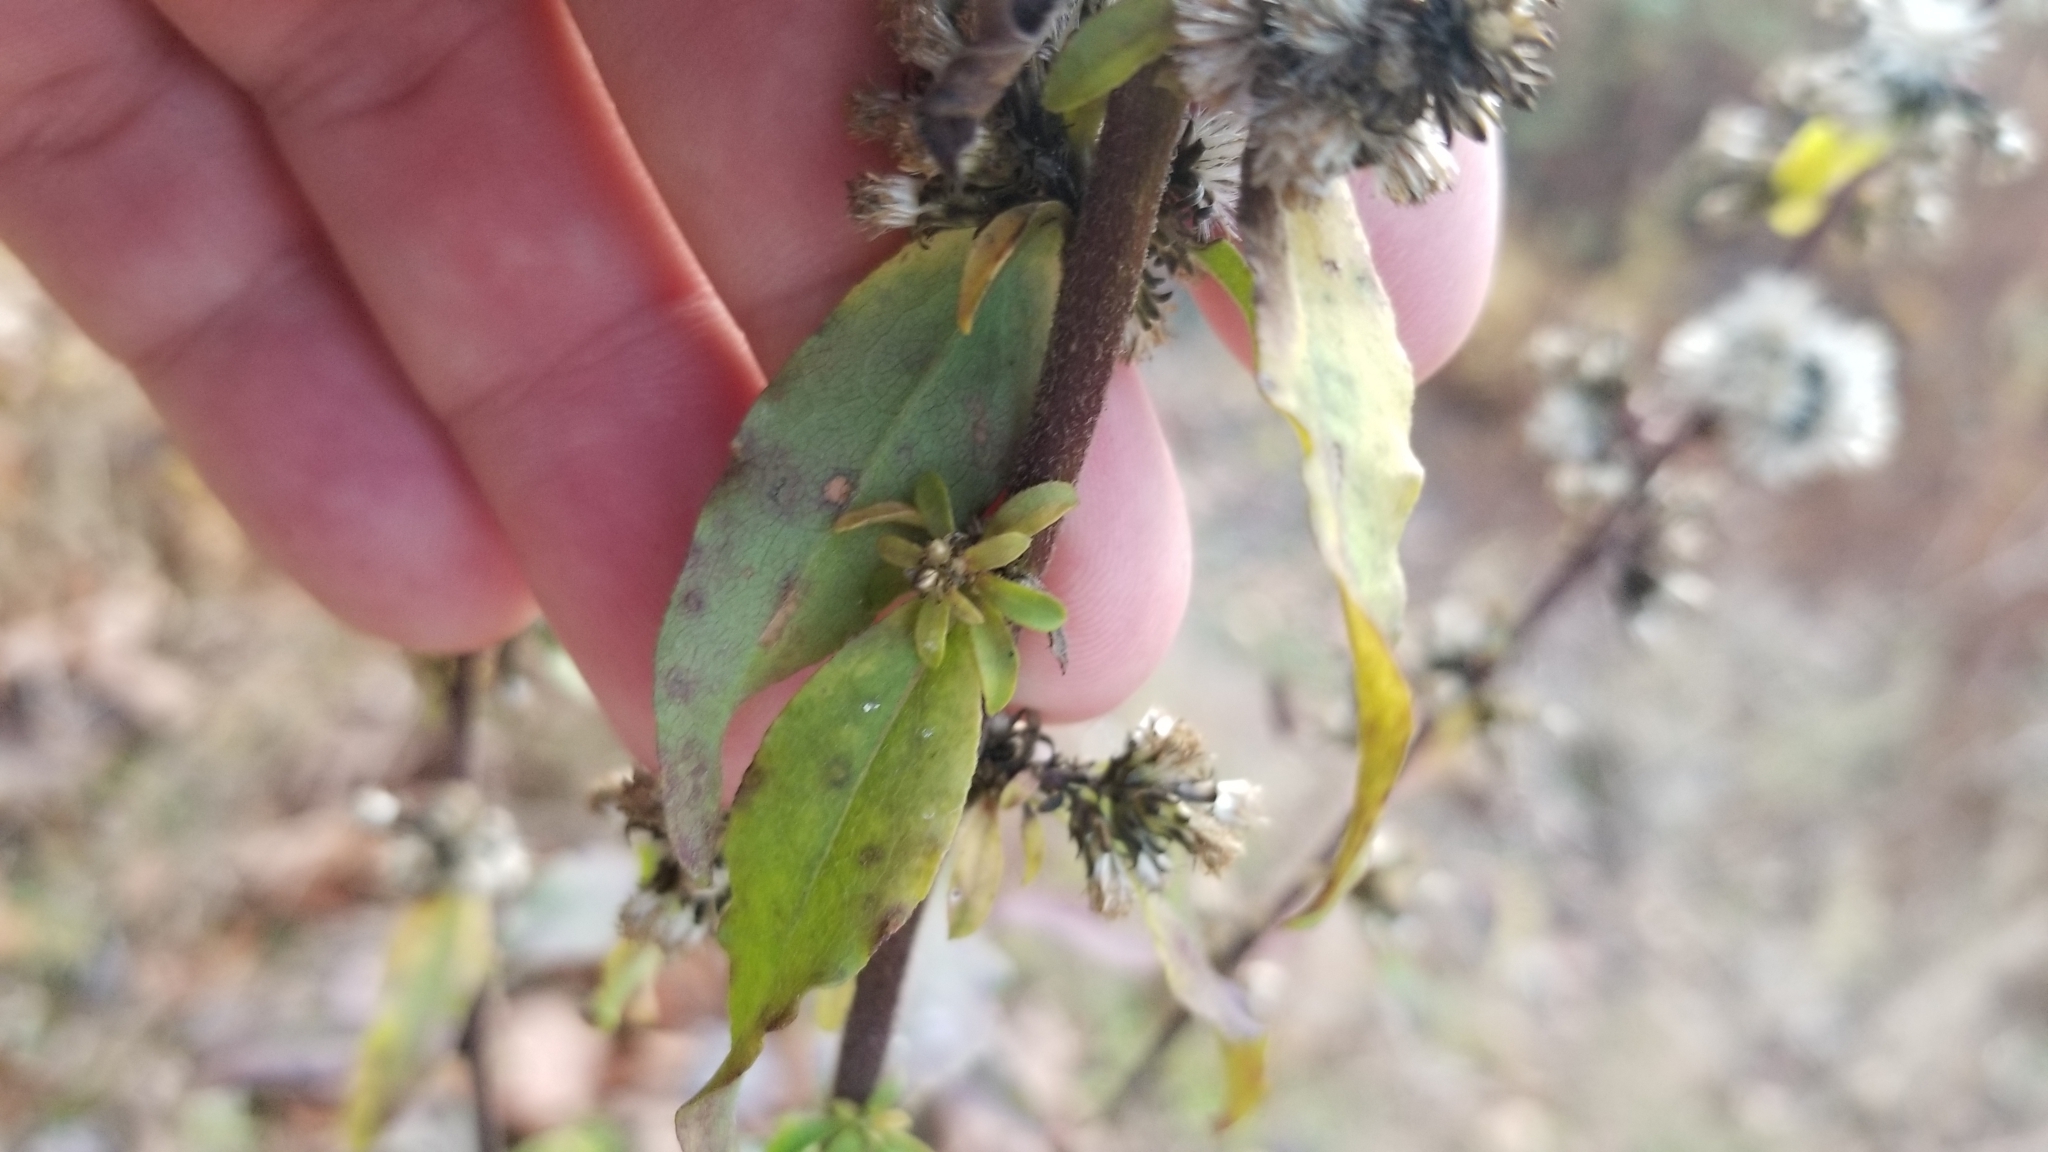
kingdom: Plantae
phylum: Tracheophyta
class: Magnoliopsida
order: Asterales
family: Asteraceae
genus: Solidago
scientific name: Solidago bicolor
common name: Silverrod
